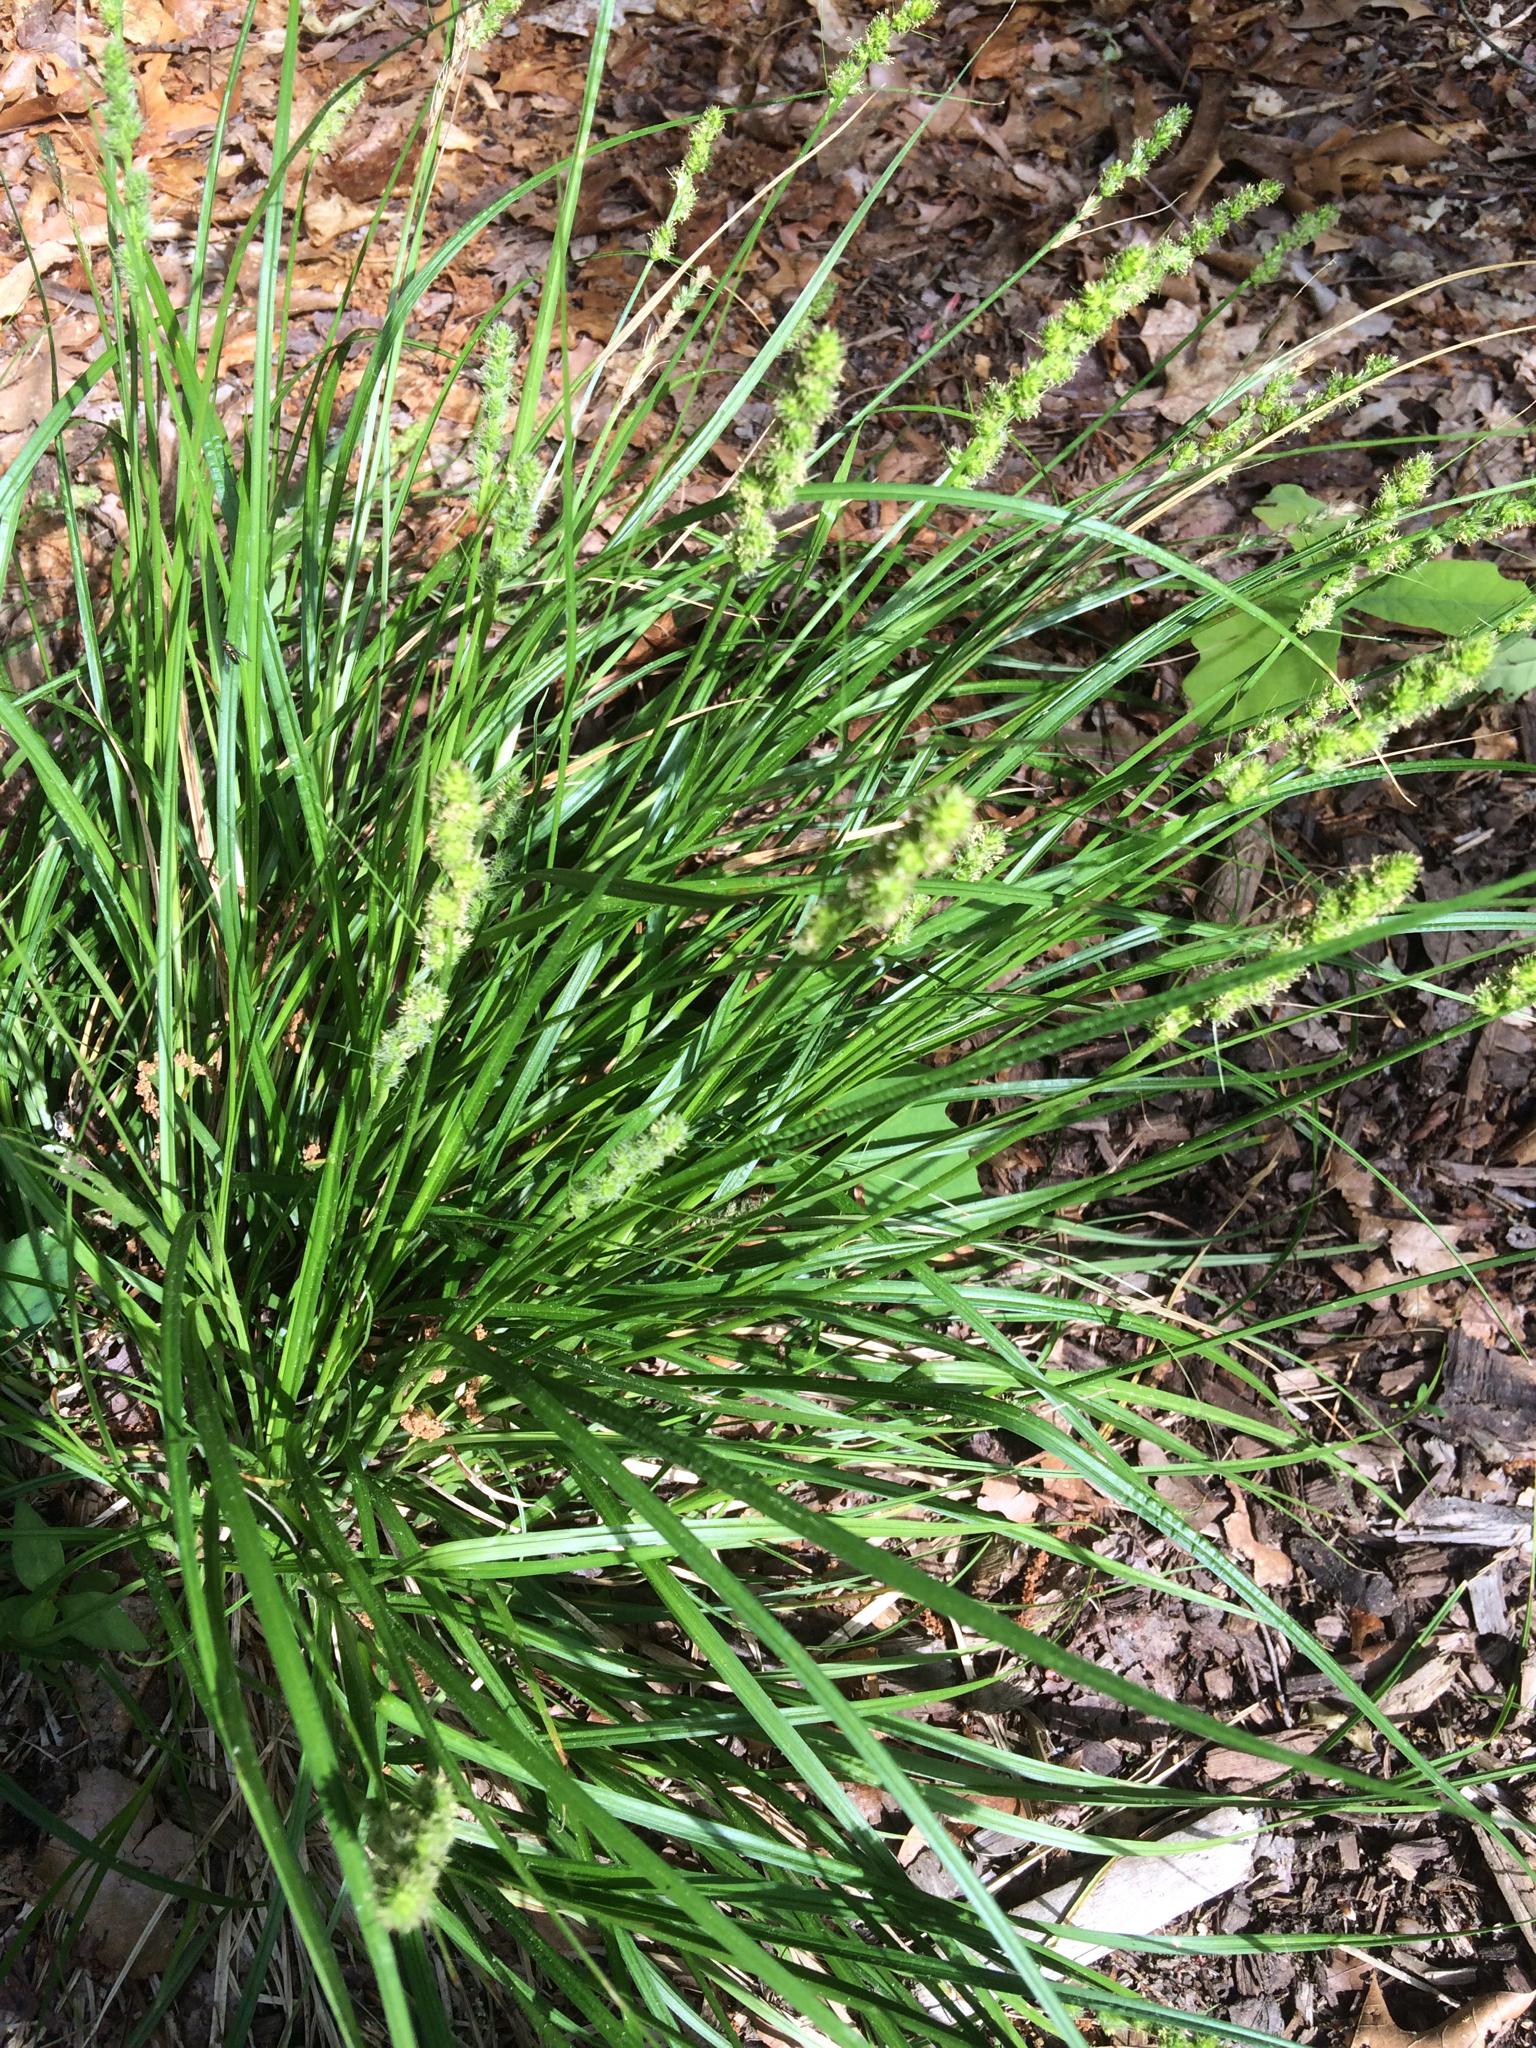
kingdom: Plantae
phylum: Tracheophyta
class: Liliopsida
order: Poales
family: Cyperaceae
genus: Carex
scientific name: Carex vulpinoidea
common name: American fox-sedge
